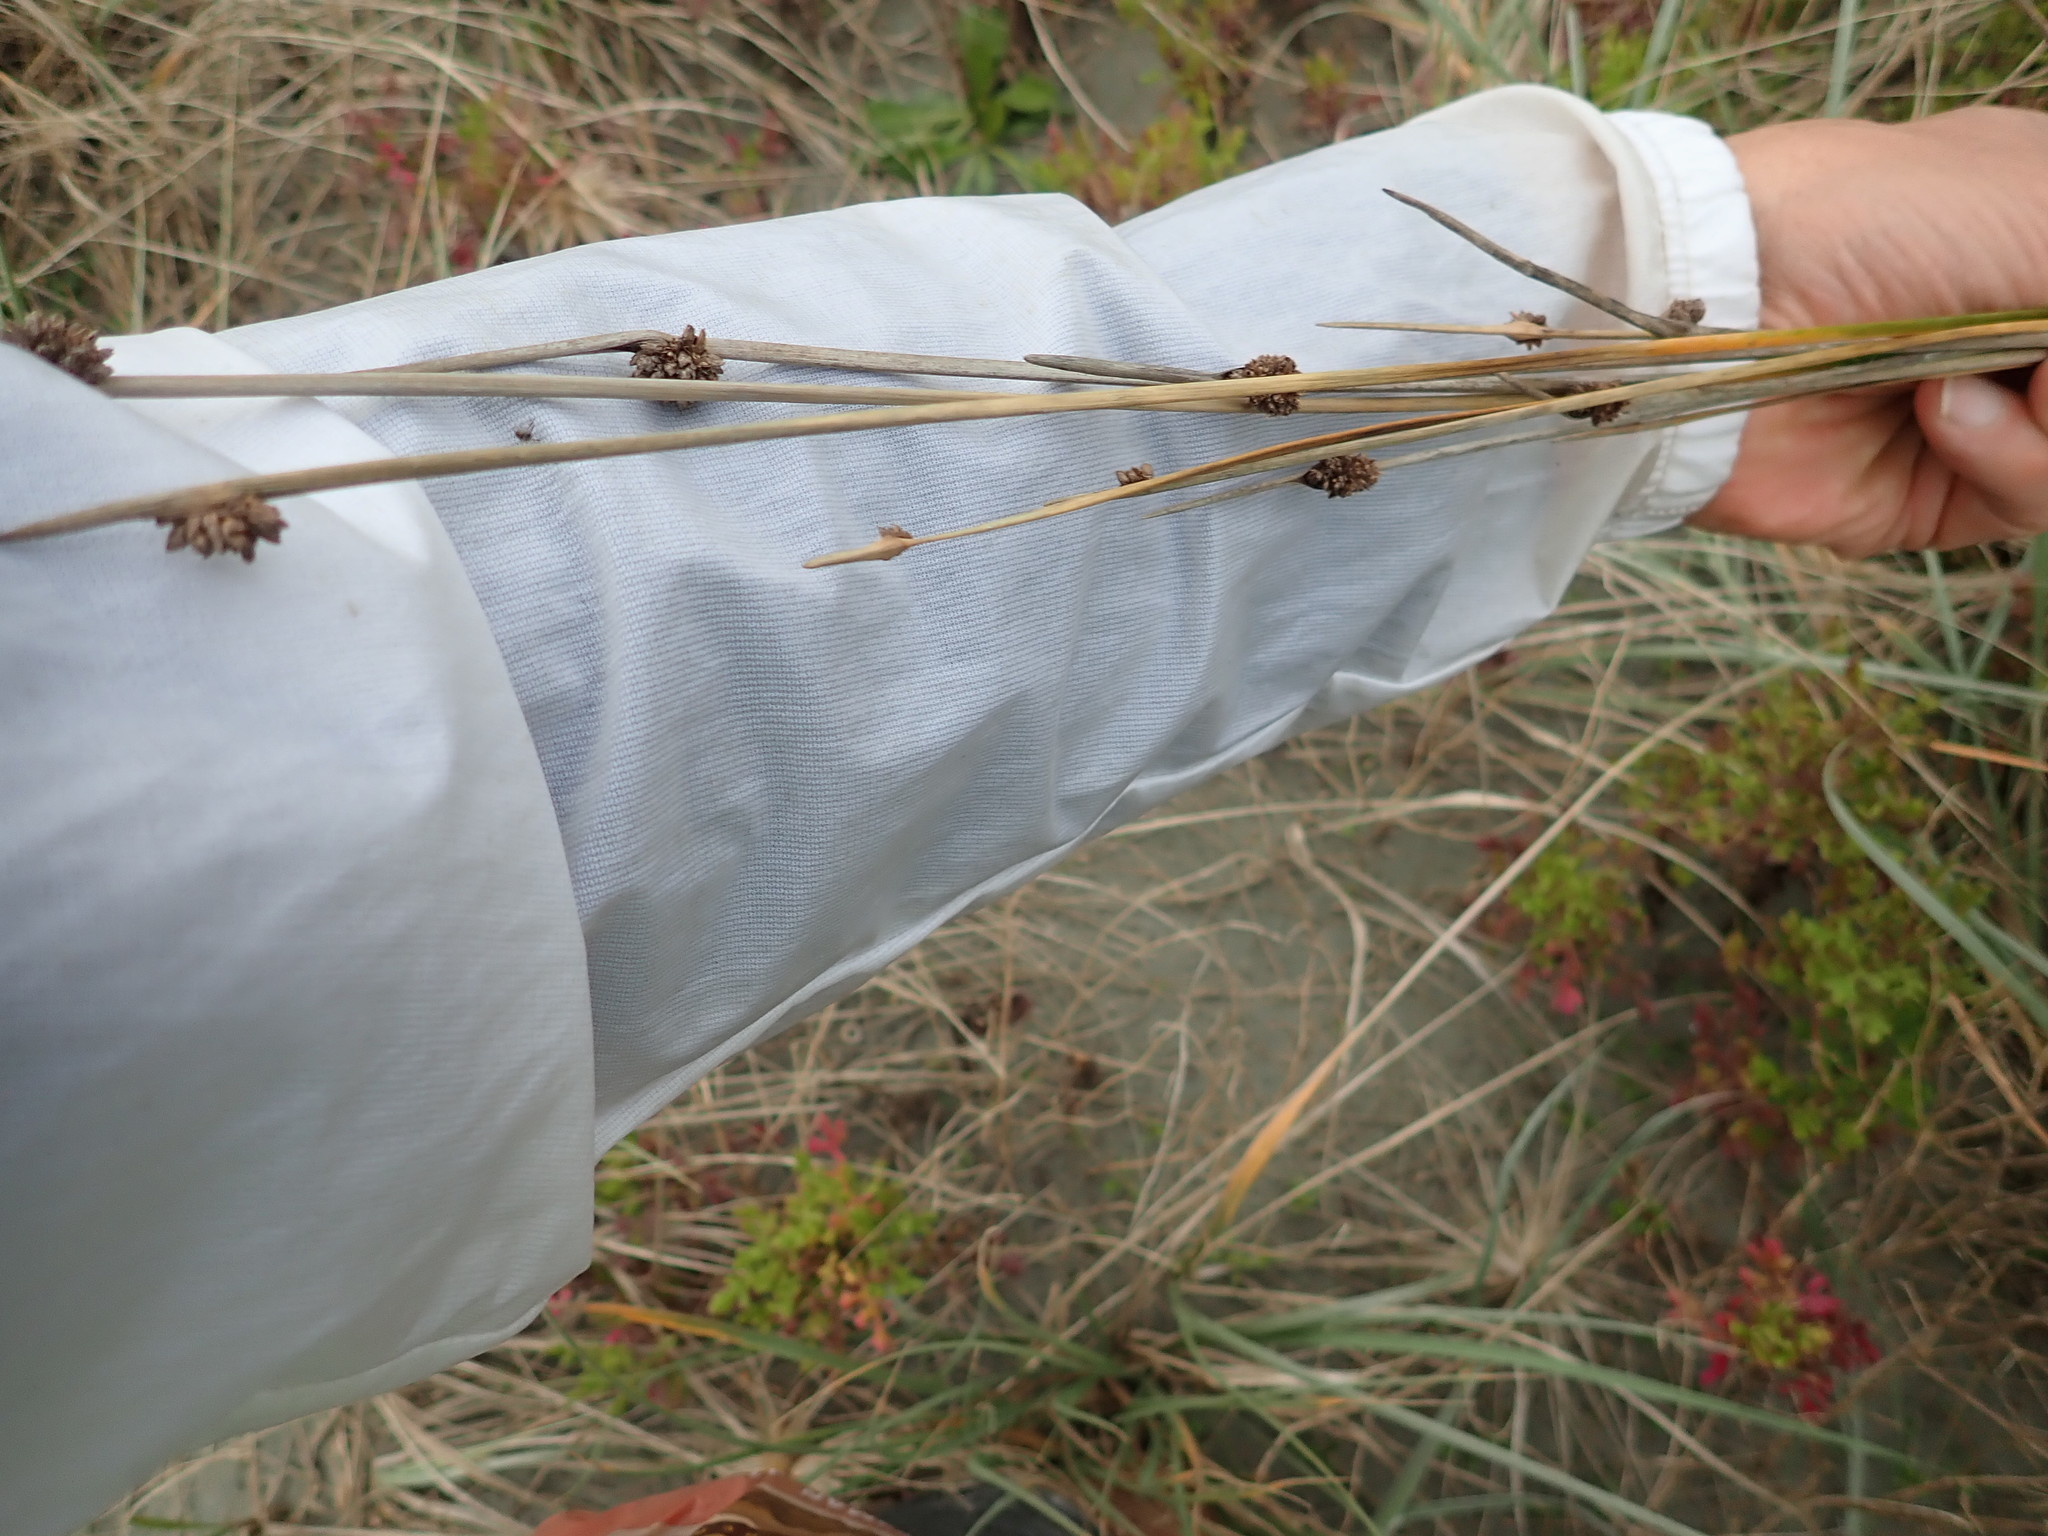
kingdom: Plantae
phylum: Tracheophyta
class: Liliopsida
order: Poales
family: Cyperaceae
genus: Ficinia
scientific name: Ficinia nodosa
